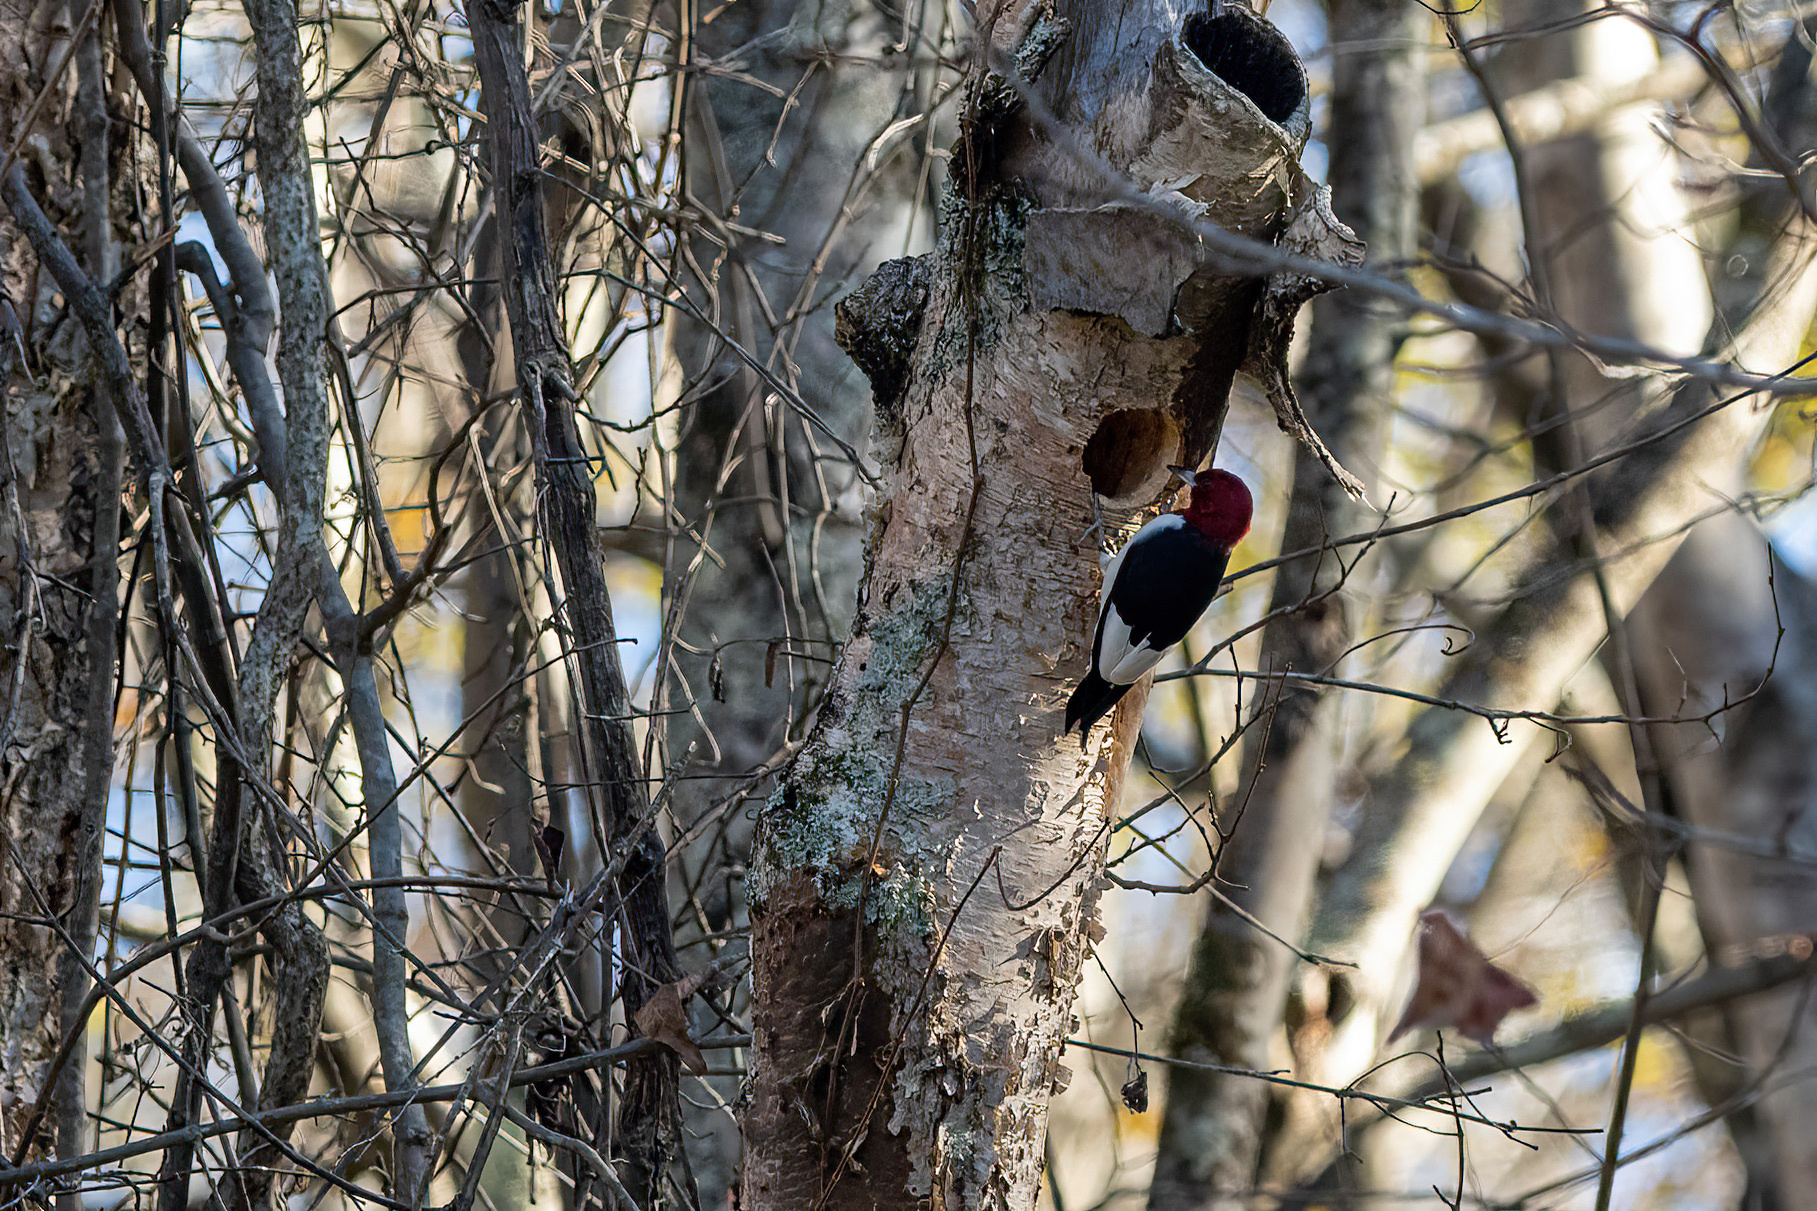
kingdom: Animalia
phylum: Chordata
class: Aves
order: Piciformes
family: Picidae
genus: Melanerpes
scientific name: Melanerpes erythrocephalus
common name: Red-headed woodpecker
